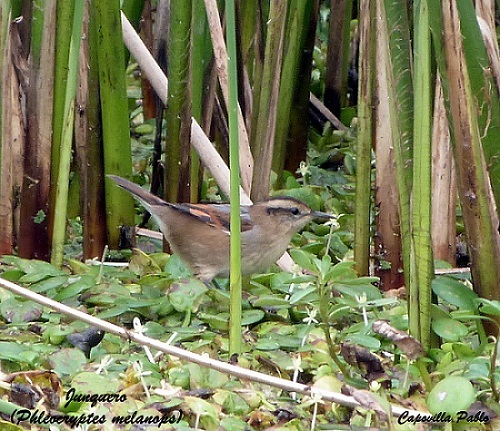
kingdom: Animalia
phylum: Chordata
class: Aves
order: Passeriformes
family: Furnariidae
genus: Phleocryptes
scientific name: Phleocryptes melanops
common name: Wren-like rushbird
